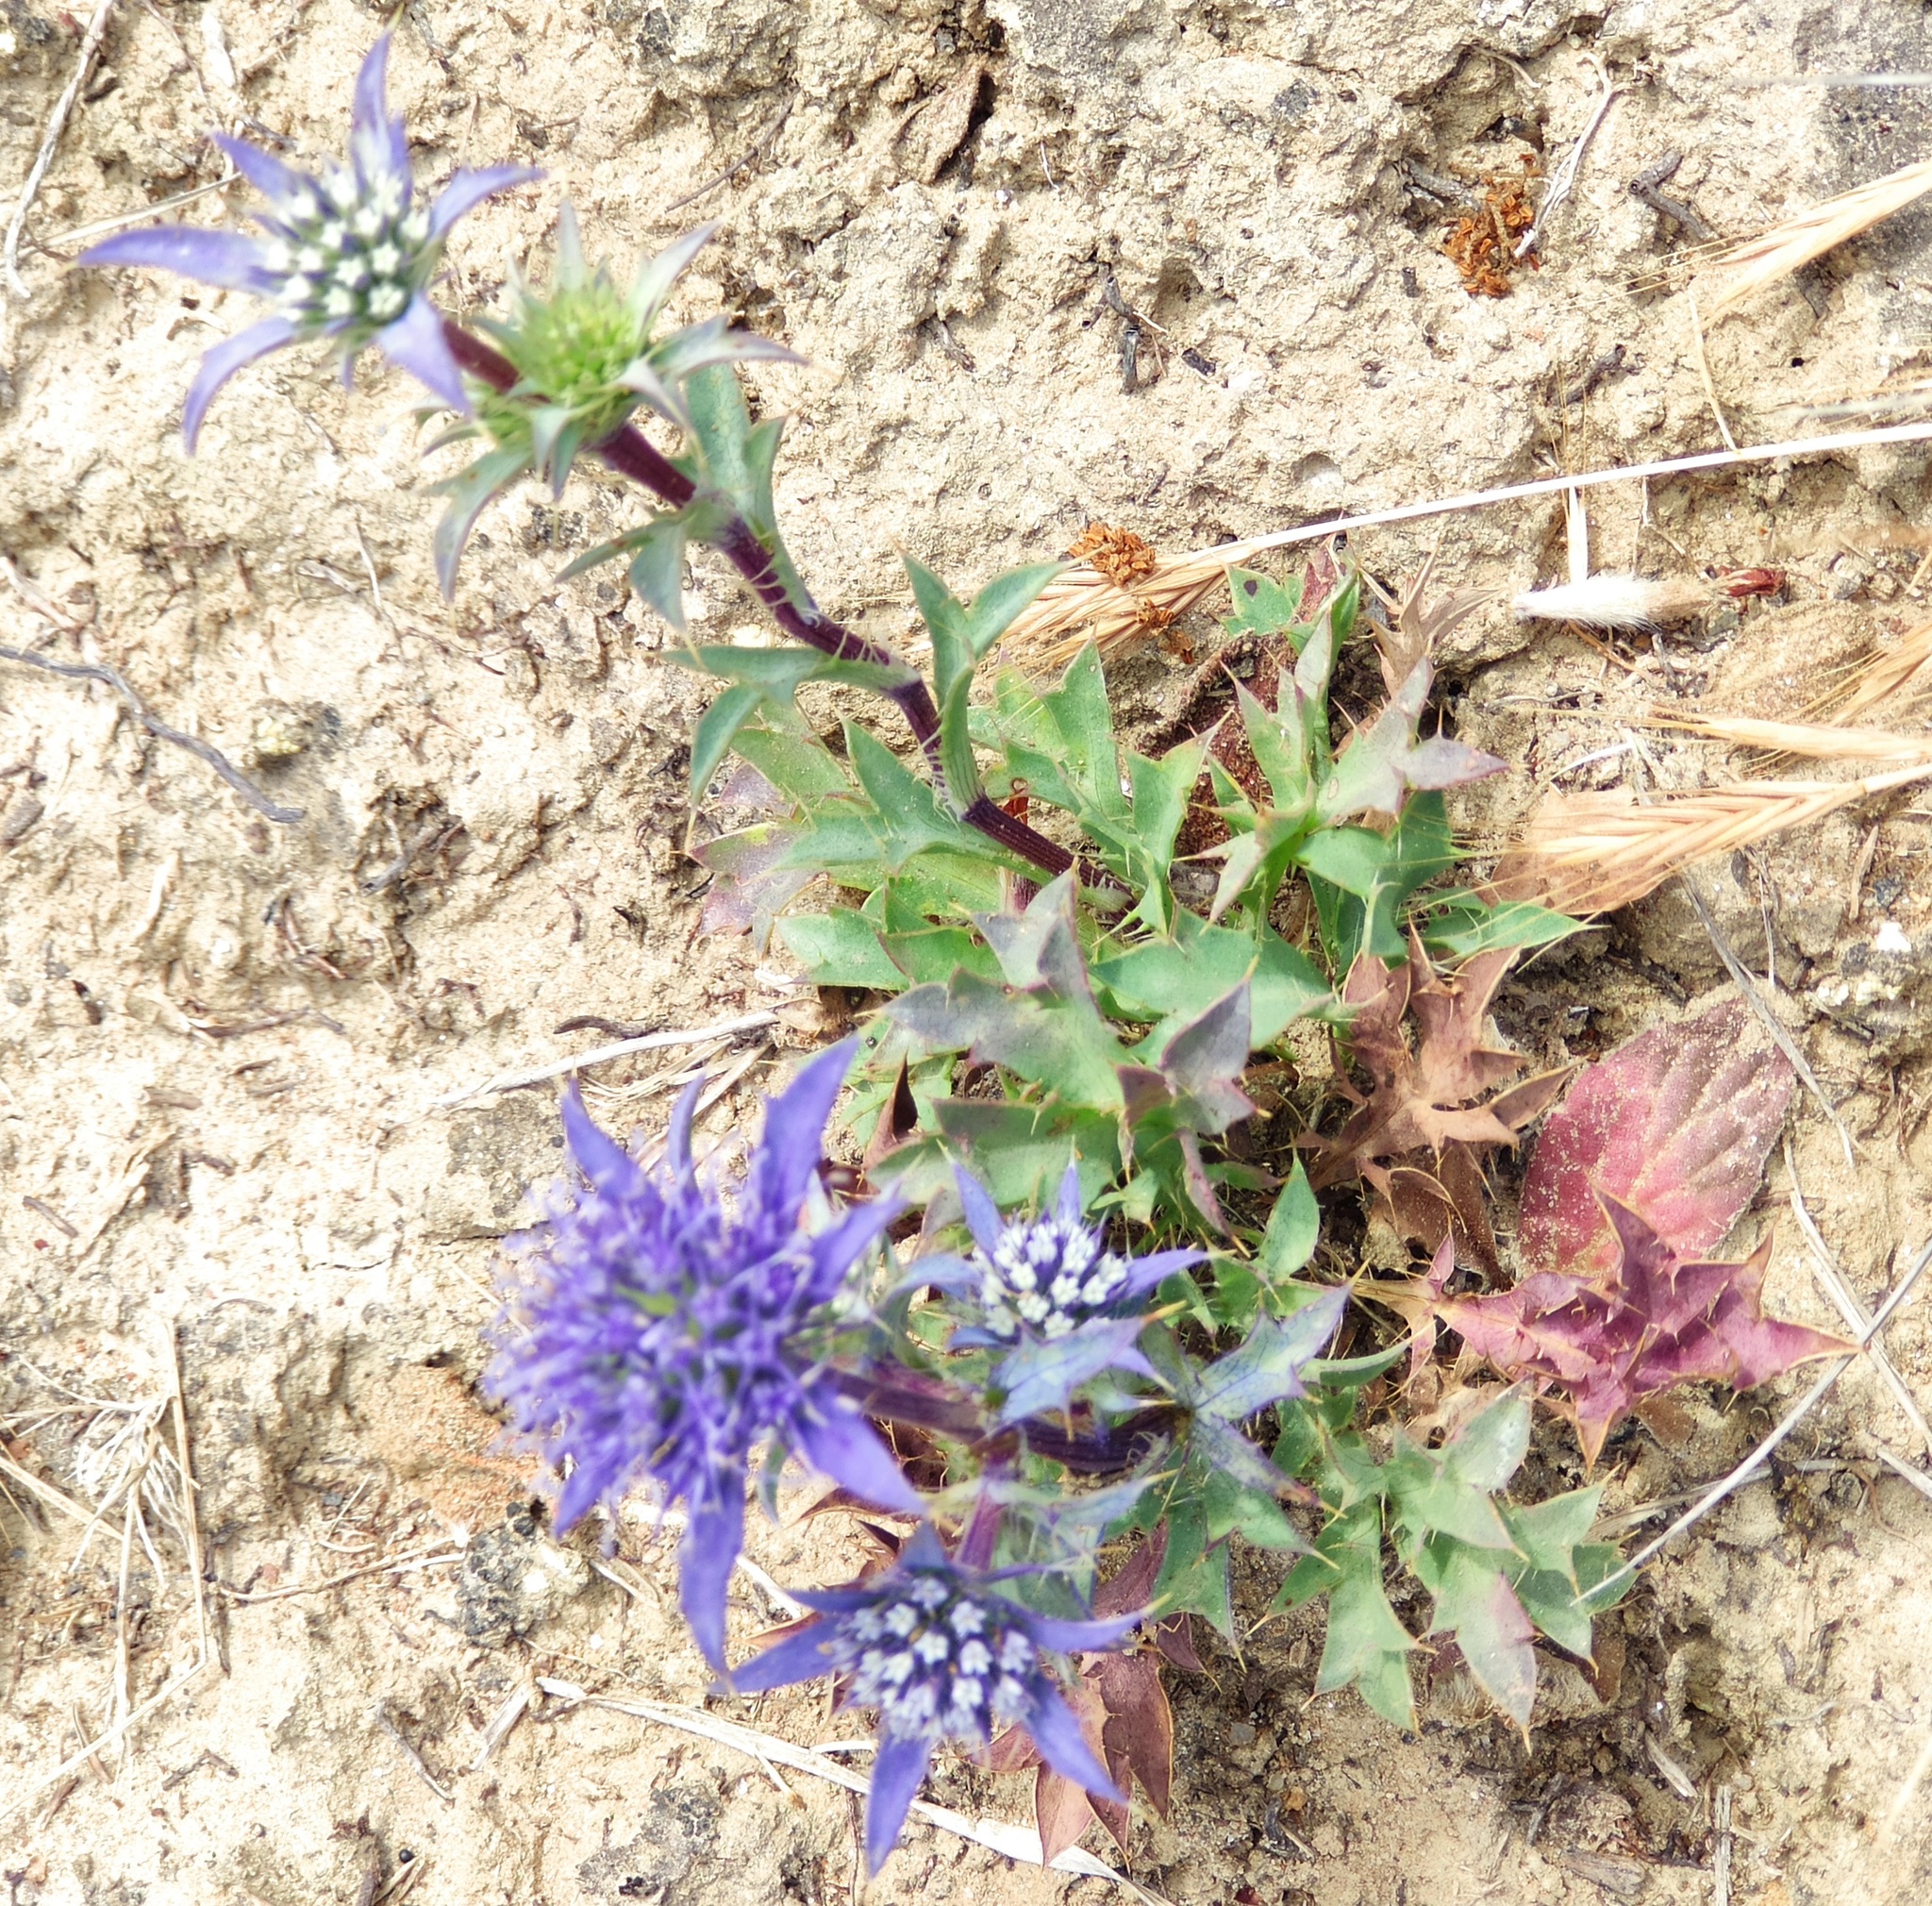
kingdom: Plantae
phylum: Tracheophyta
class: Magnoliopsida
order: Apiales
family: Apiaceae
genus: Eryngium
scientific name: Eryngium dilatatum
